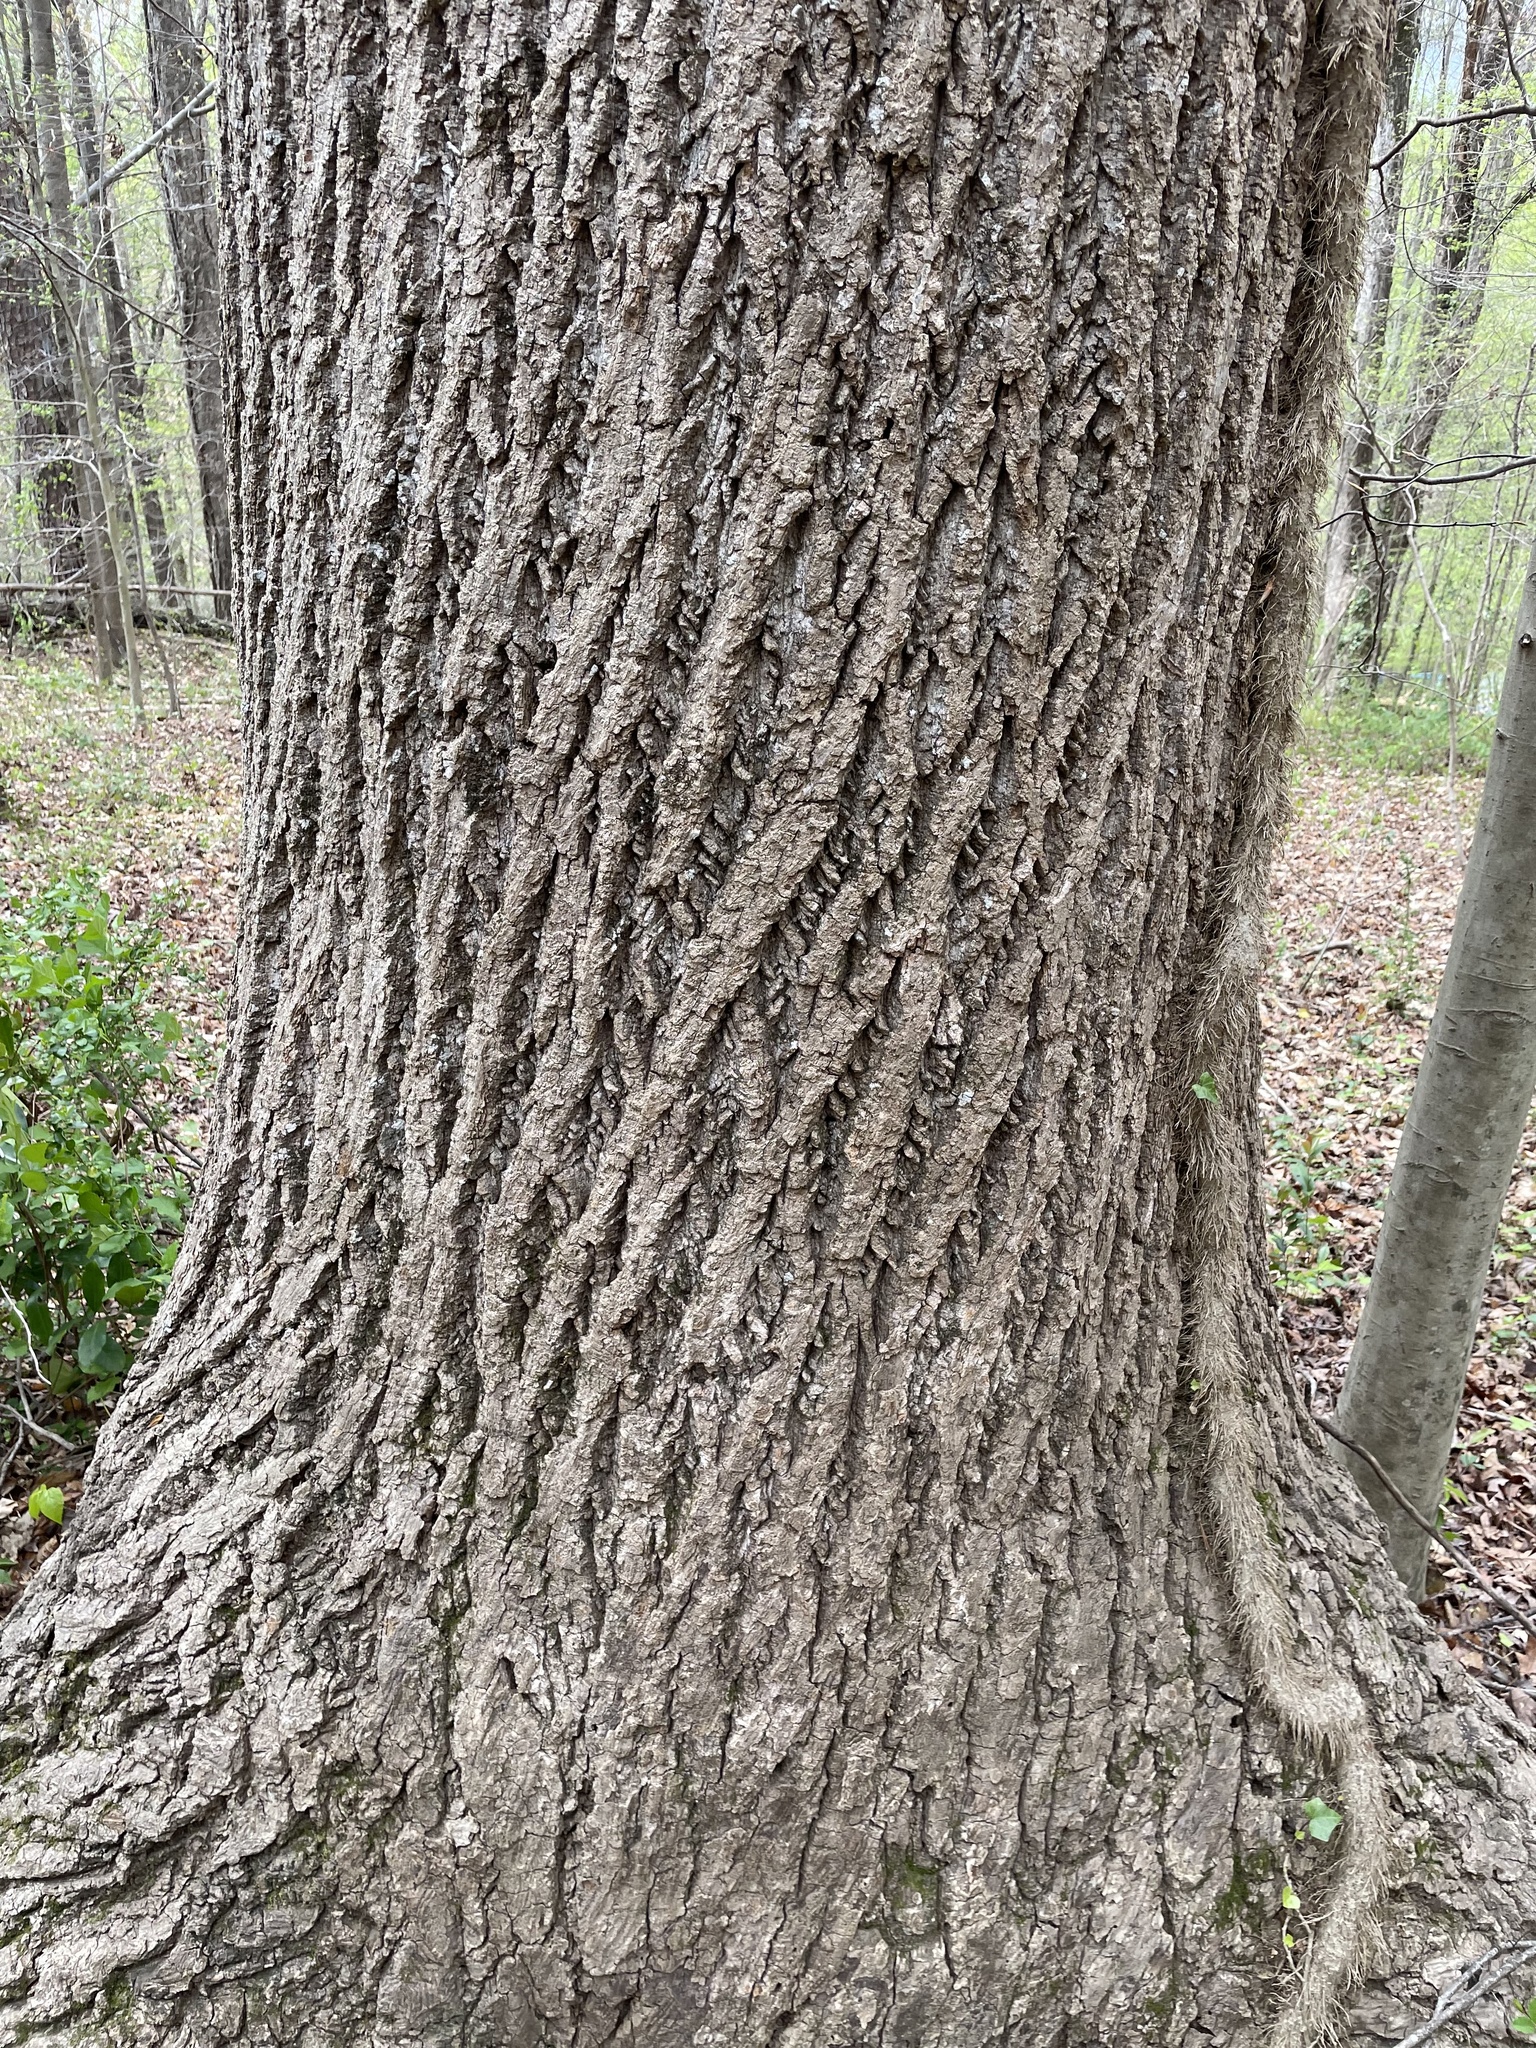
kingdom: Plantae
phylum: Tracheophyta
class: Magnoliopsida
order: Magnoliales
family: Magnoliaceae
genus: Liriodendron
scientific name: Liriodendron tulipifera
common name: Tulip tree
